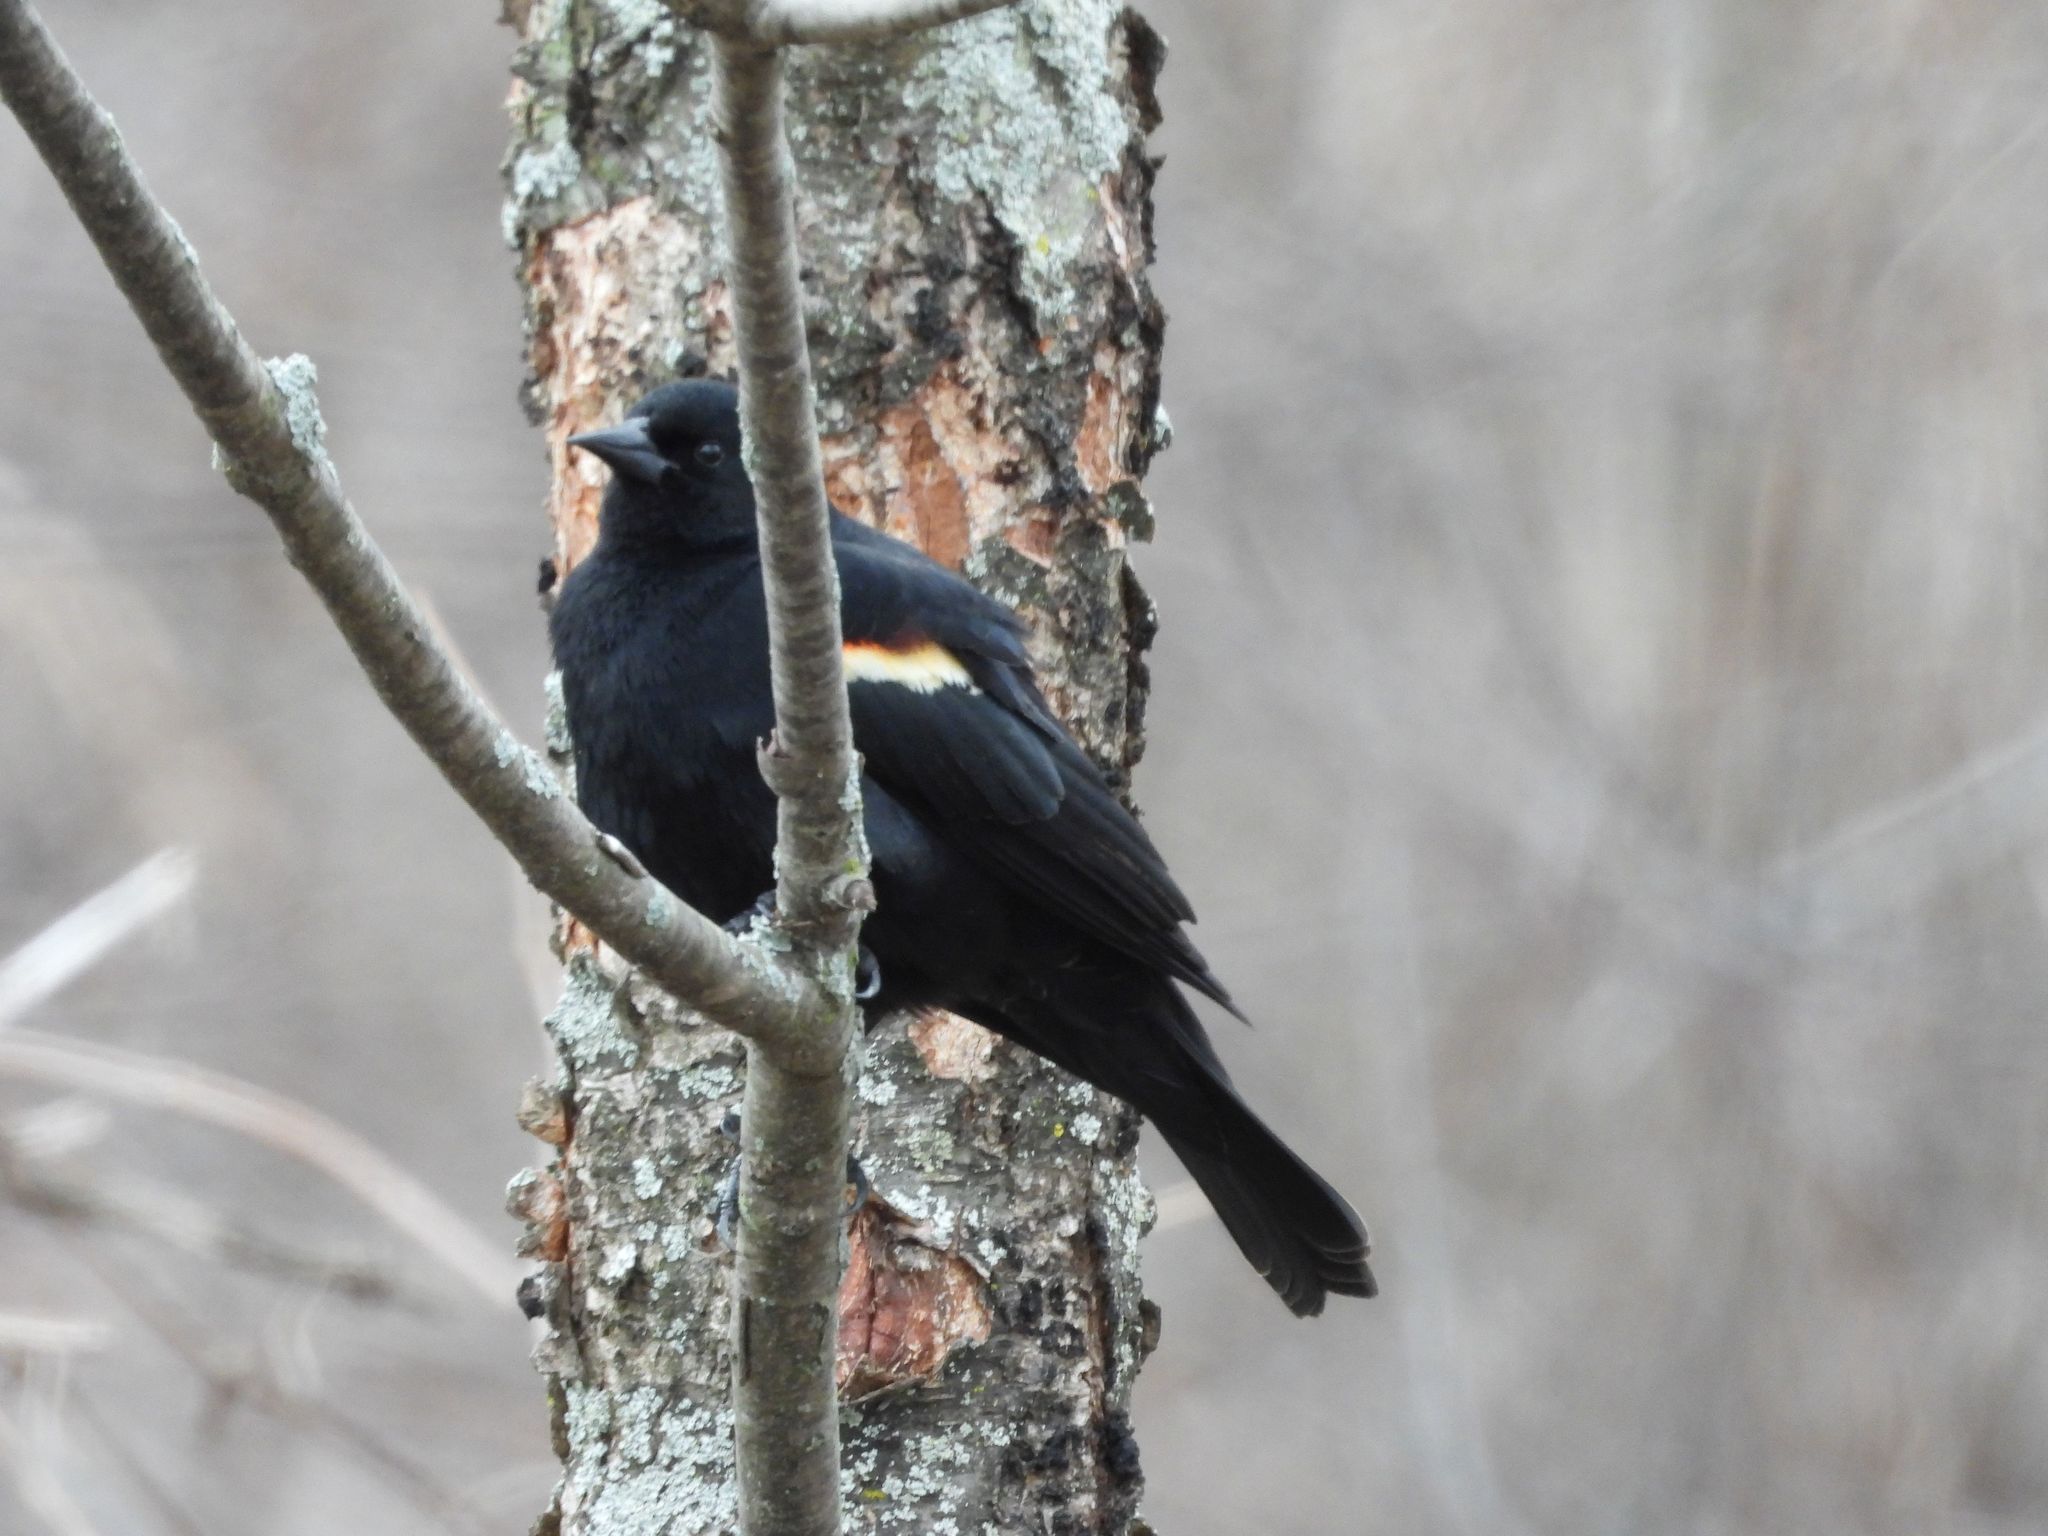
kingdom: Animalia
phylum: Chordata
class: Aves
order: Passeriformes
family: Icteridae
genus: Agelaius
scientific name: Agelaius phoeniceus
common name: Red-winged blackbird
